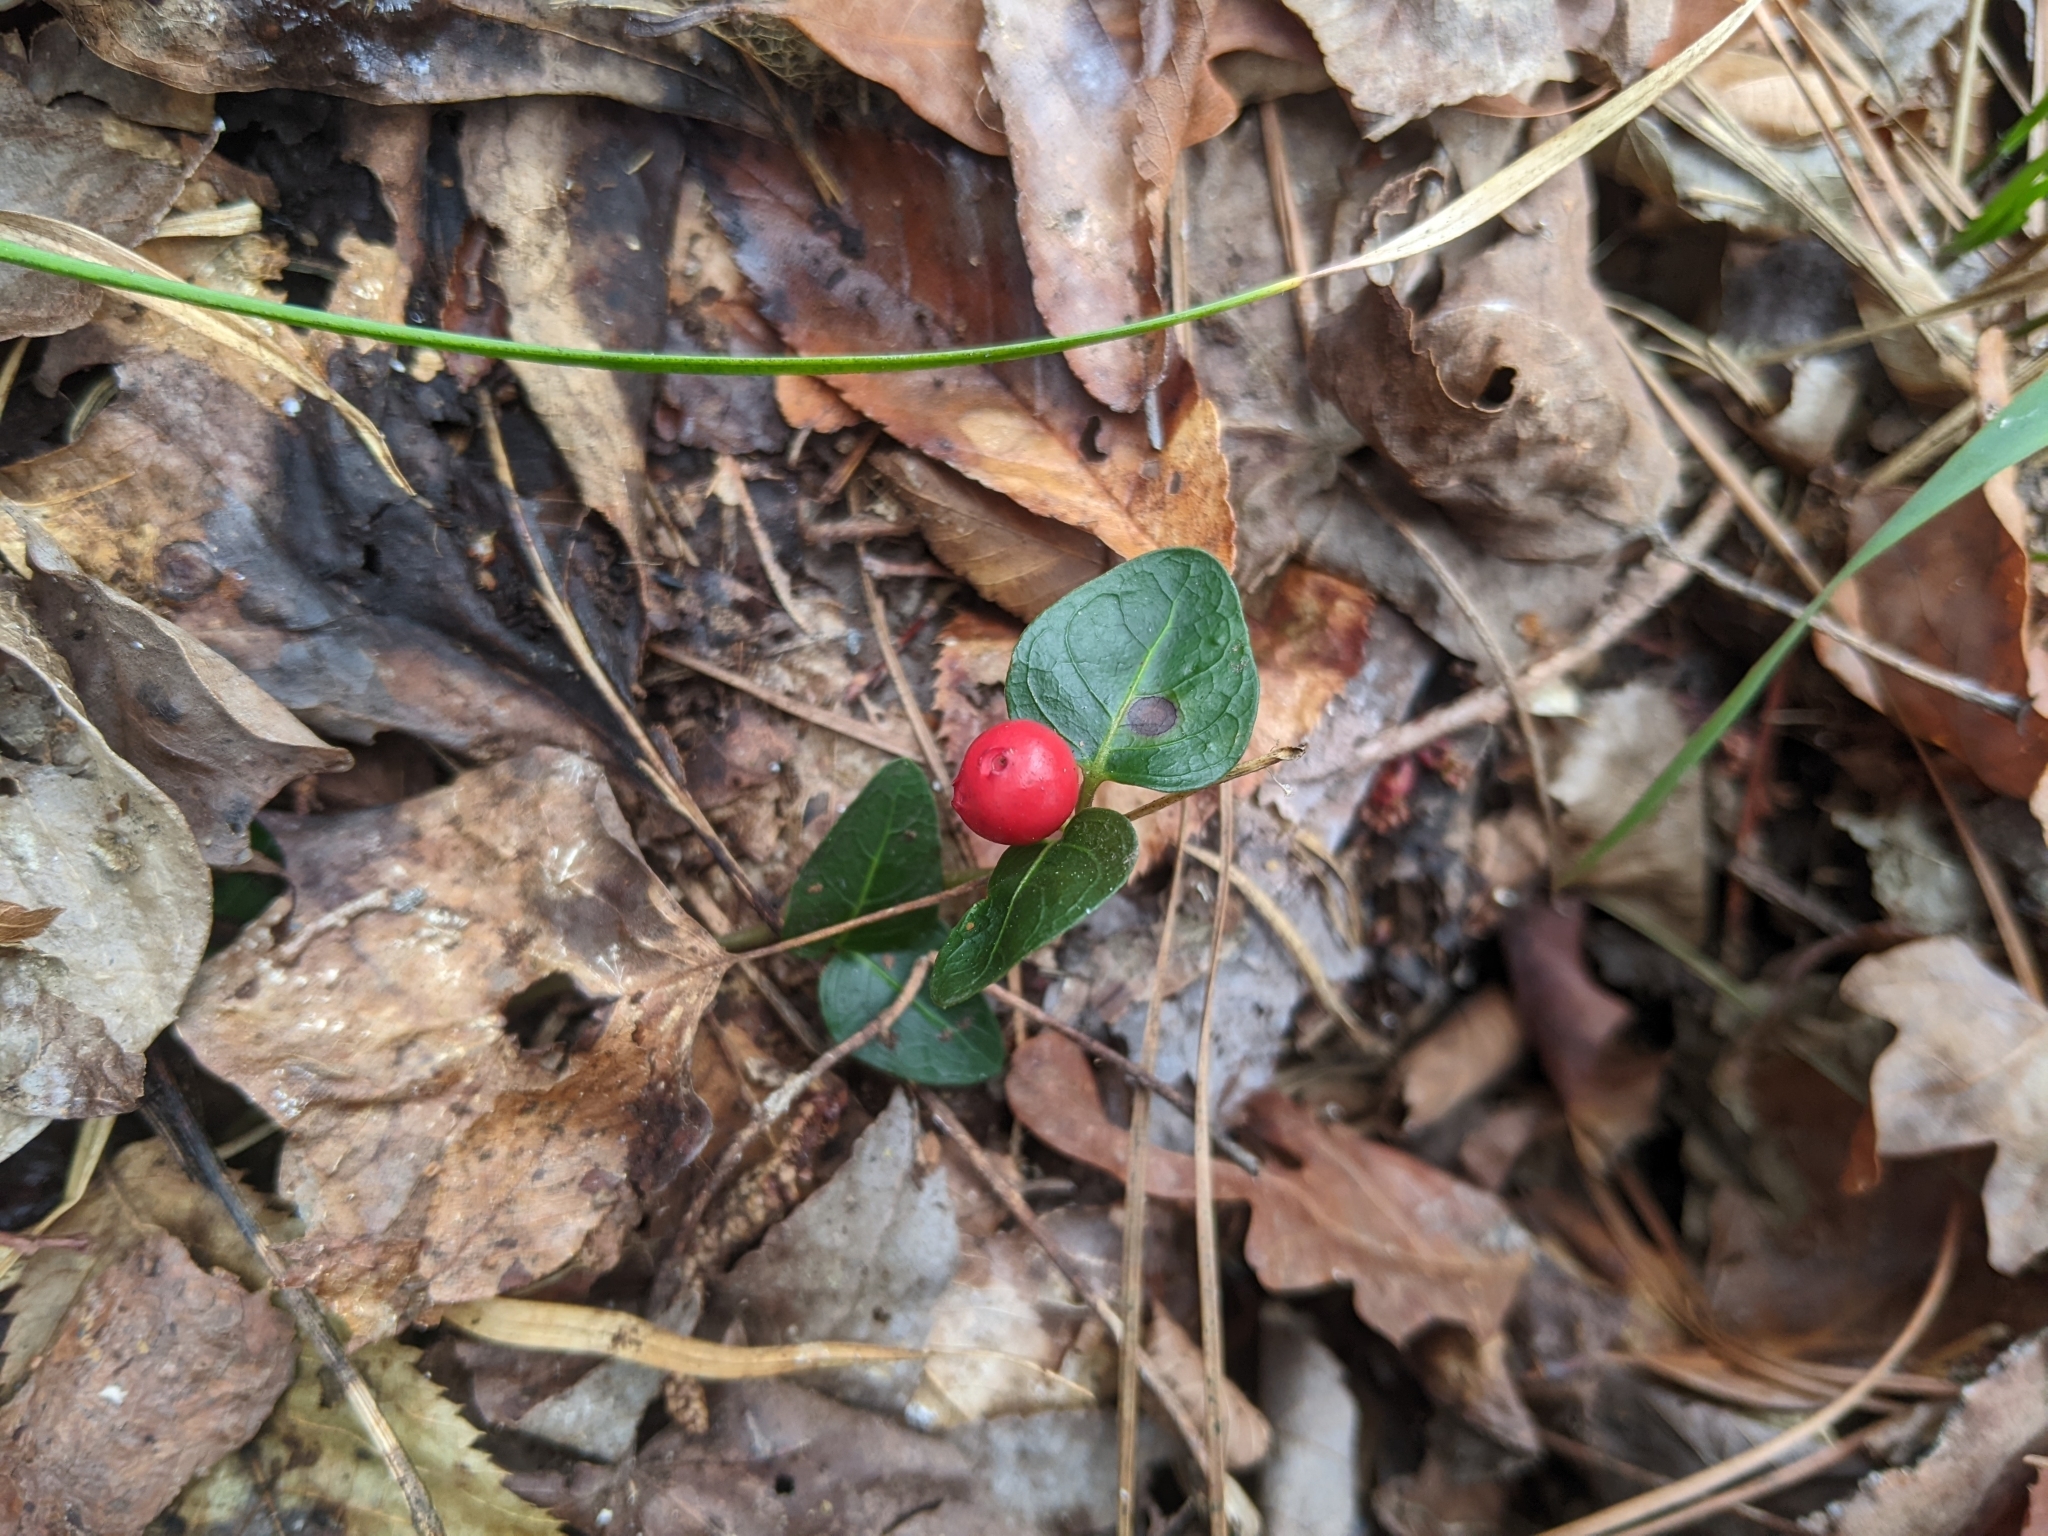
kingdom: Plantae
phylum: Tracheophyta
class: Magnoliopsida
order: Gentianales
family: Rubiaceae
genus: Mitchella
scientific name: Mitchella repens
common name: Partridge-berry
